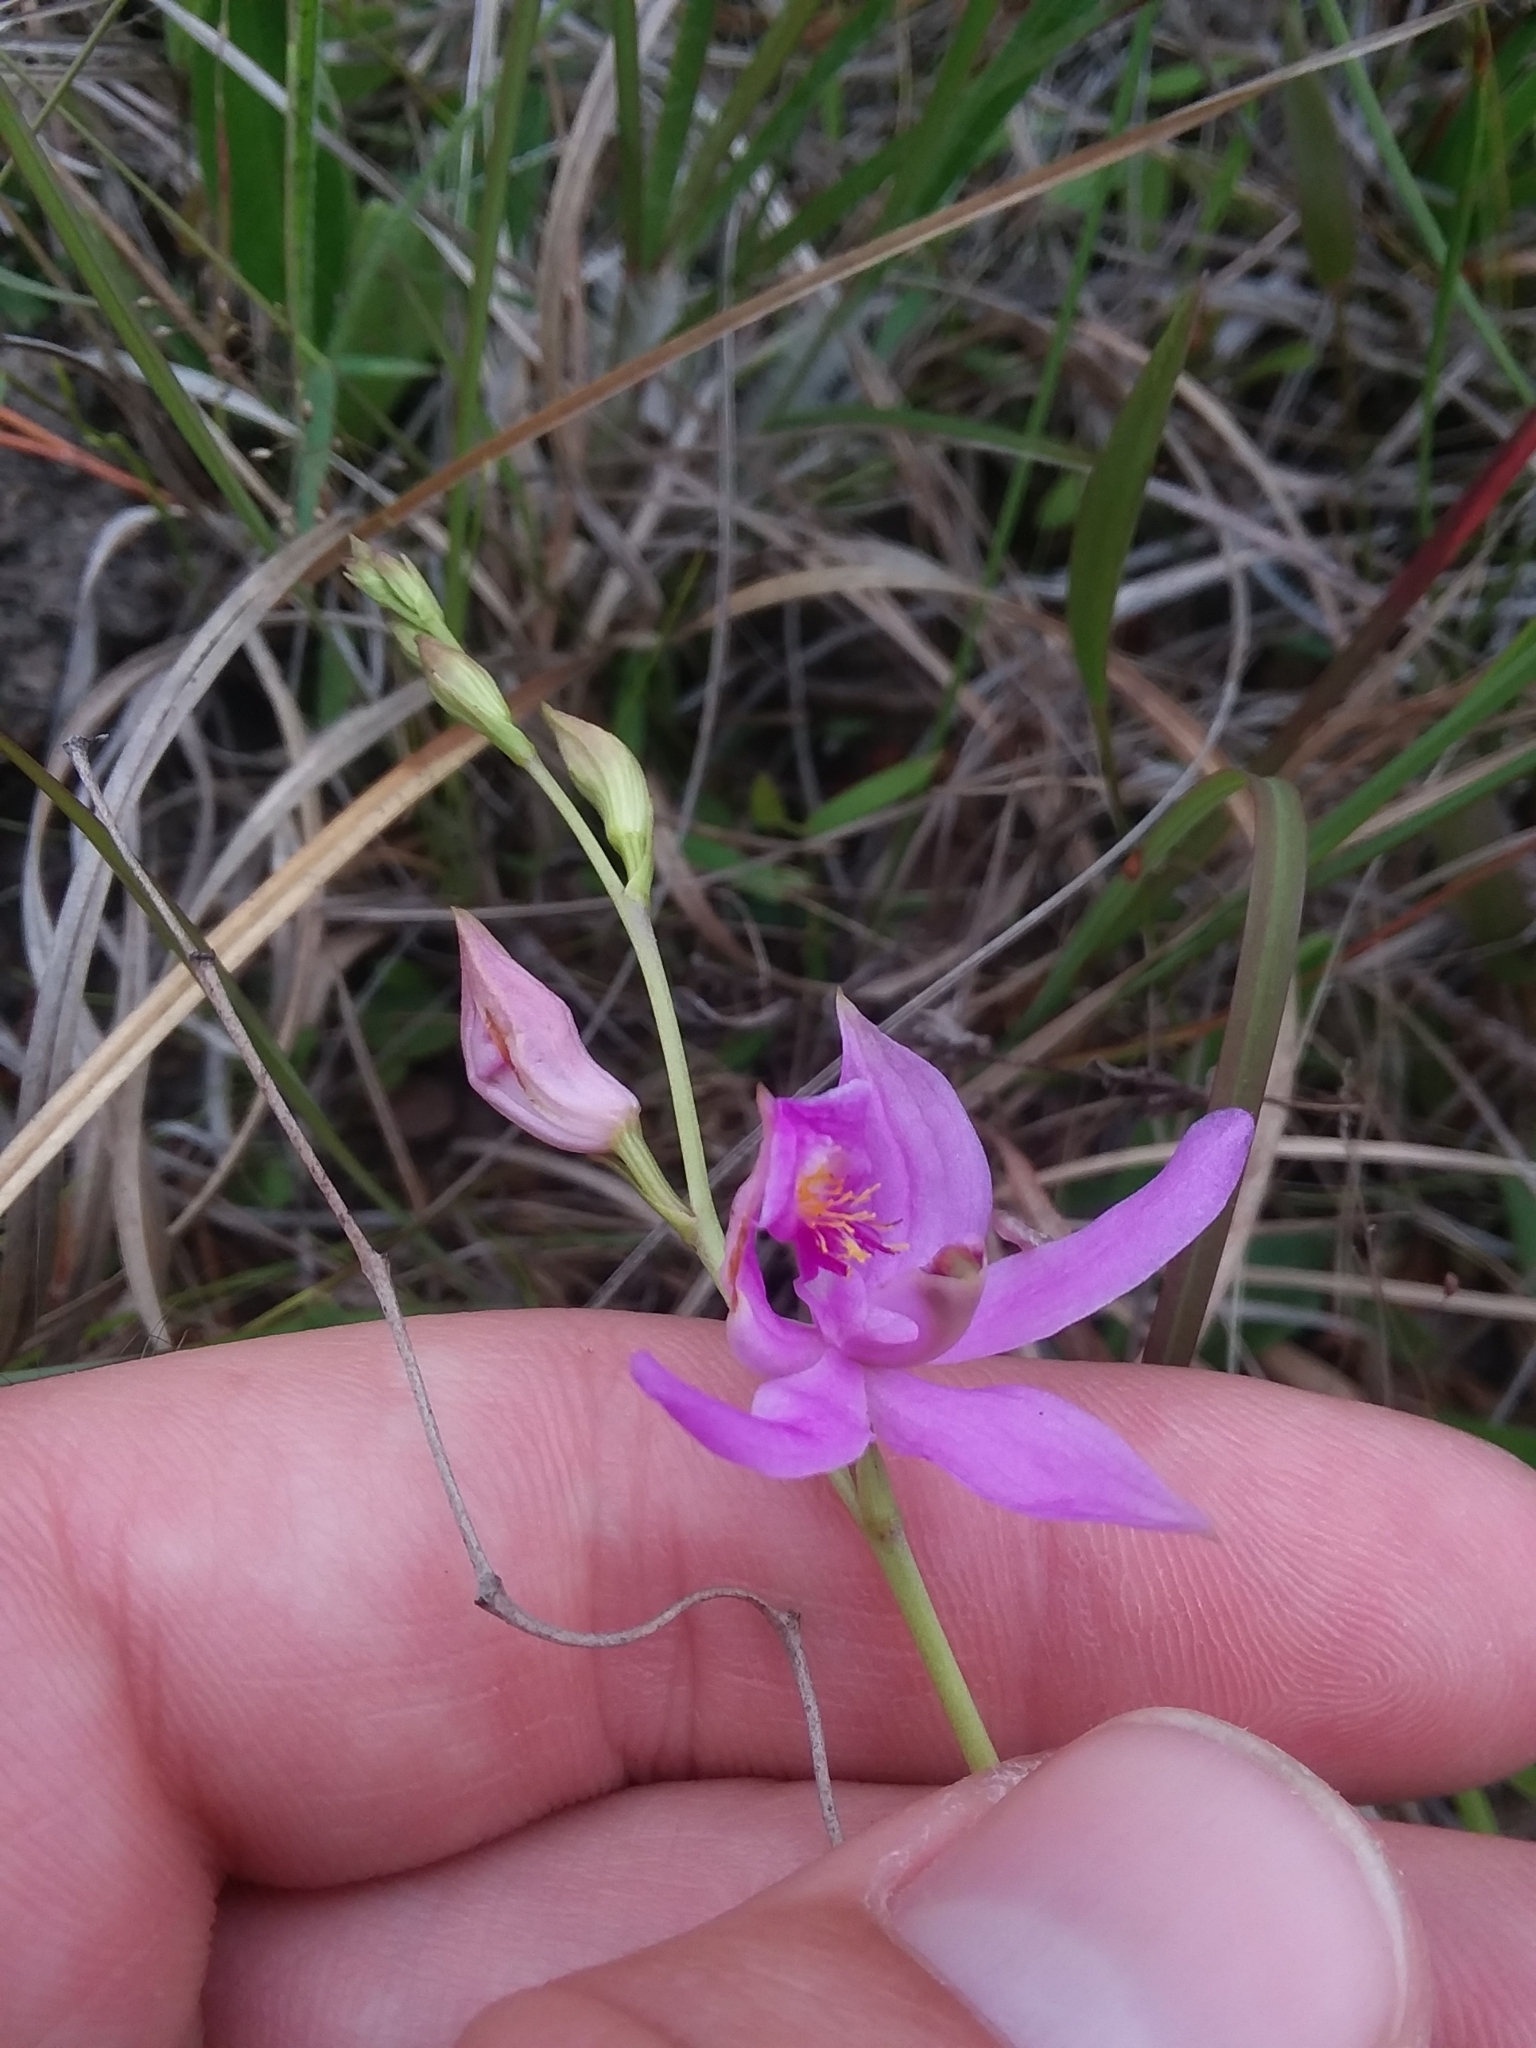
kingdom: Plantae
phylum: Tracheophyta
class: Liliopsida
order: Asparagales
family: Orchidaceae
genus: Calopogon
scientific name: Calopogon pallidus
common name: Pale grasspink
